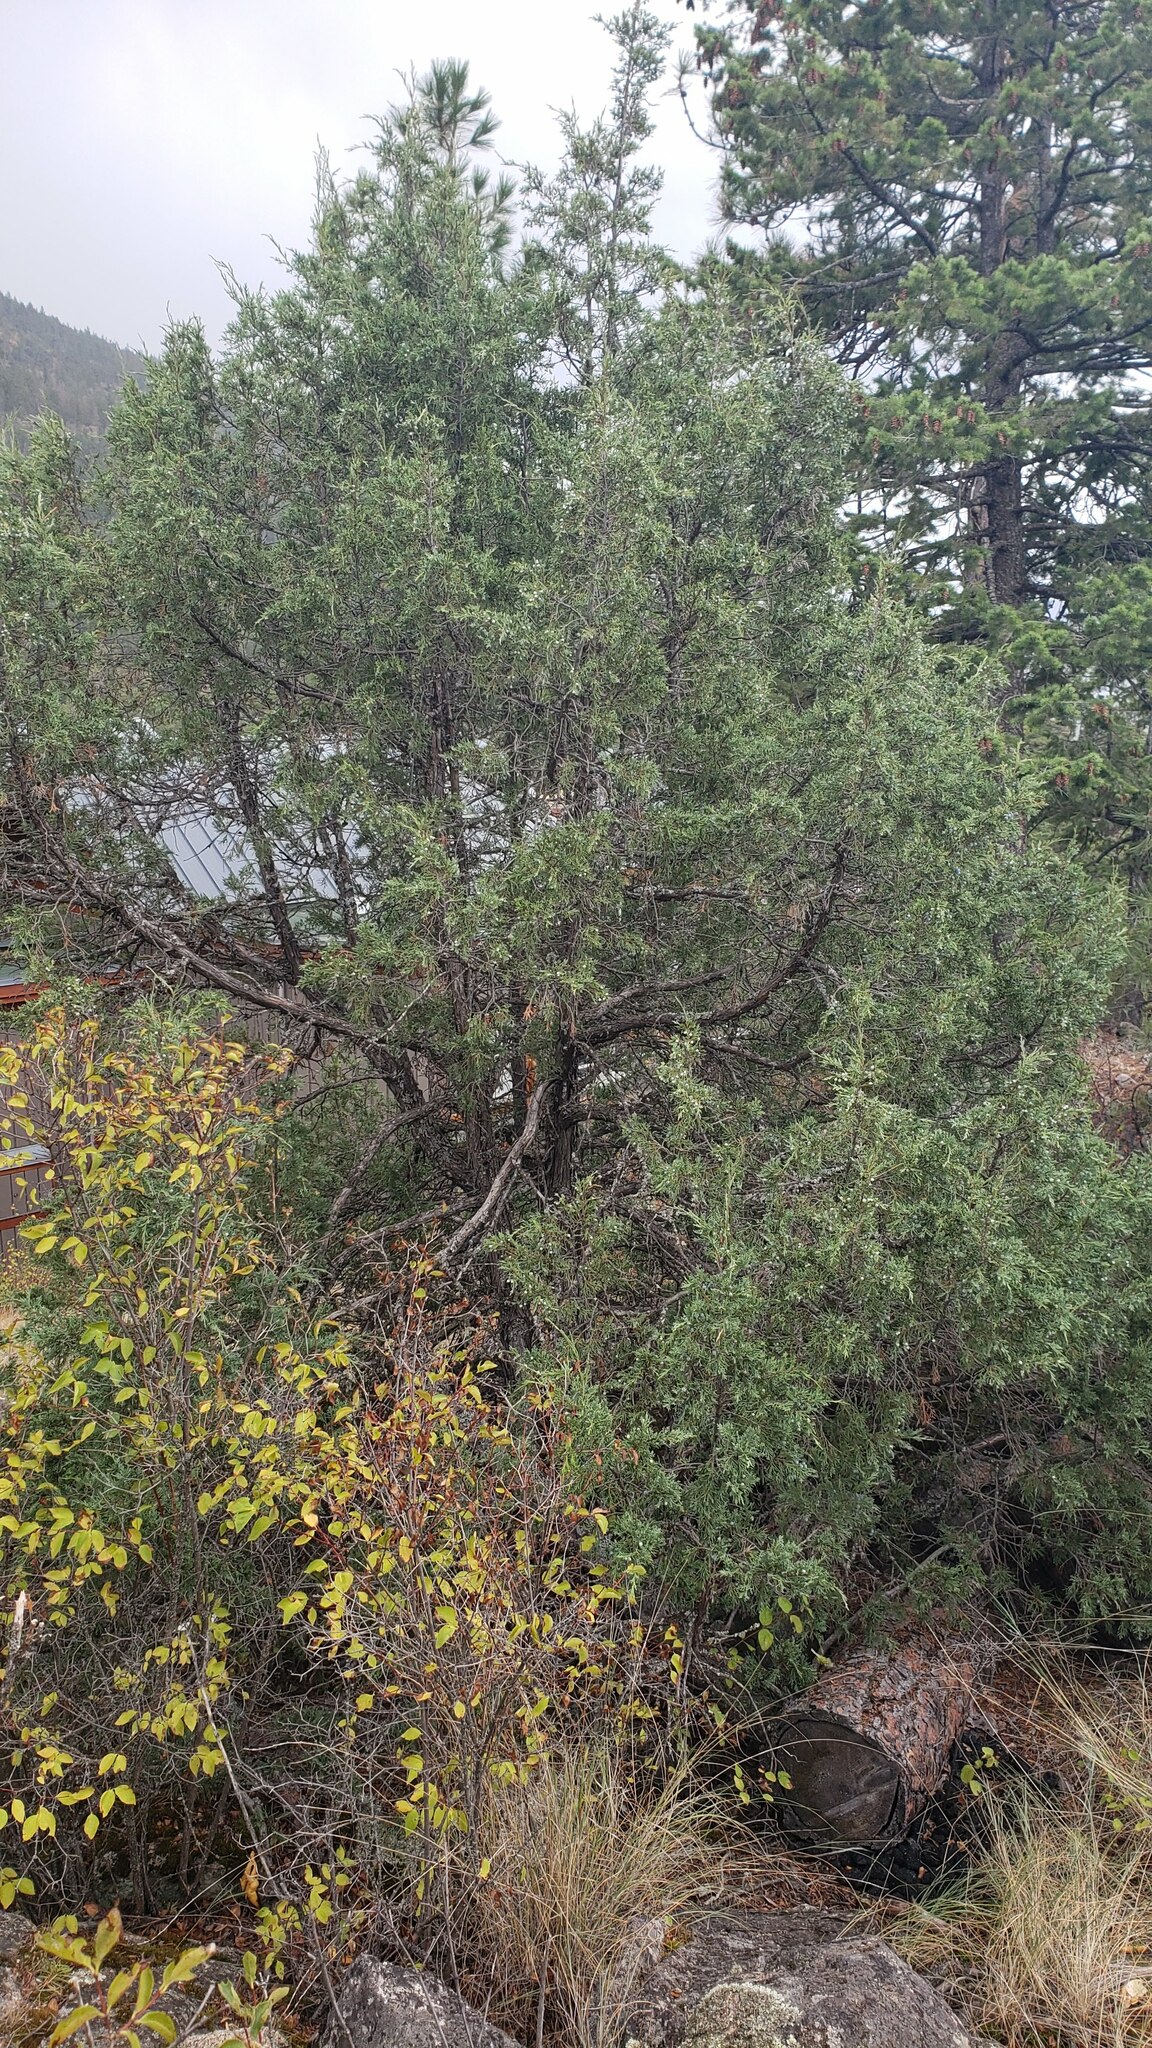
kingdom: Plantae
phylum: Tracheophyta
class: Pinopsida
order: Pinales
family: Cupressaceae
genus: Juniperus
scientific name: Juniperus scopulorum
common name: Rocky mountain juniper
